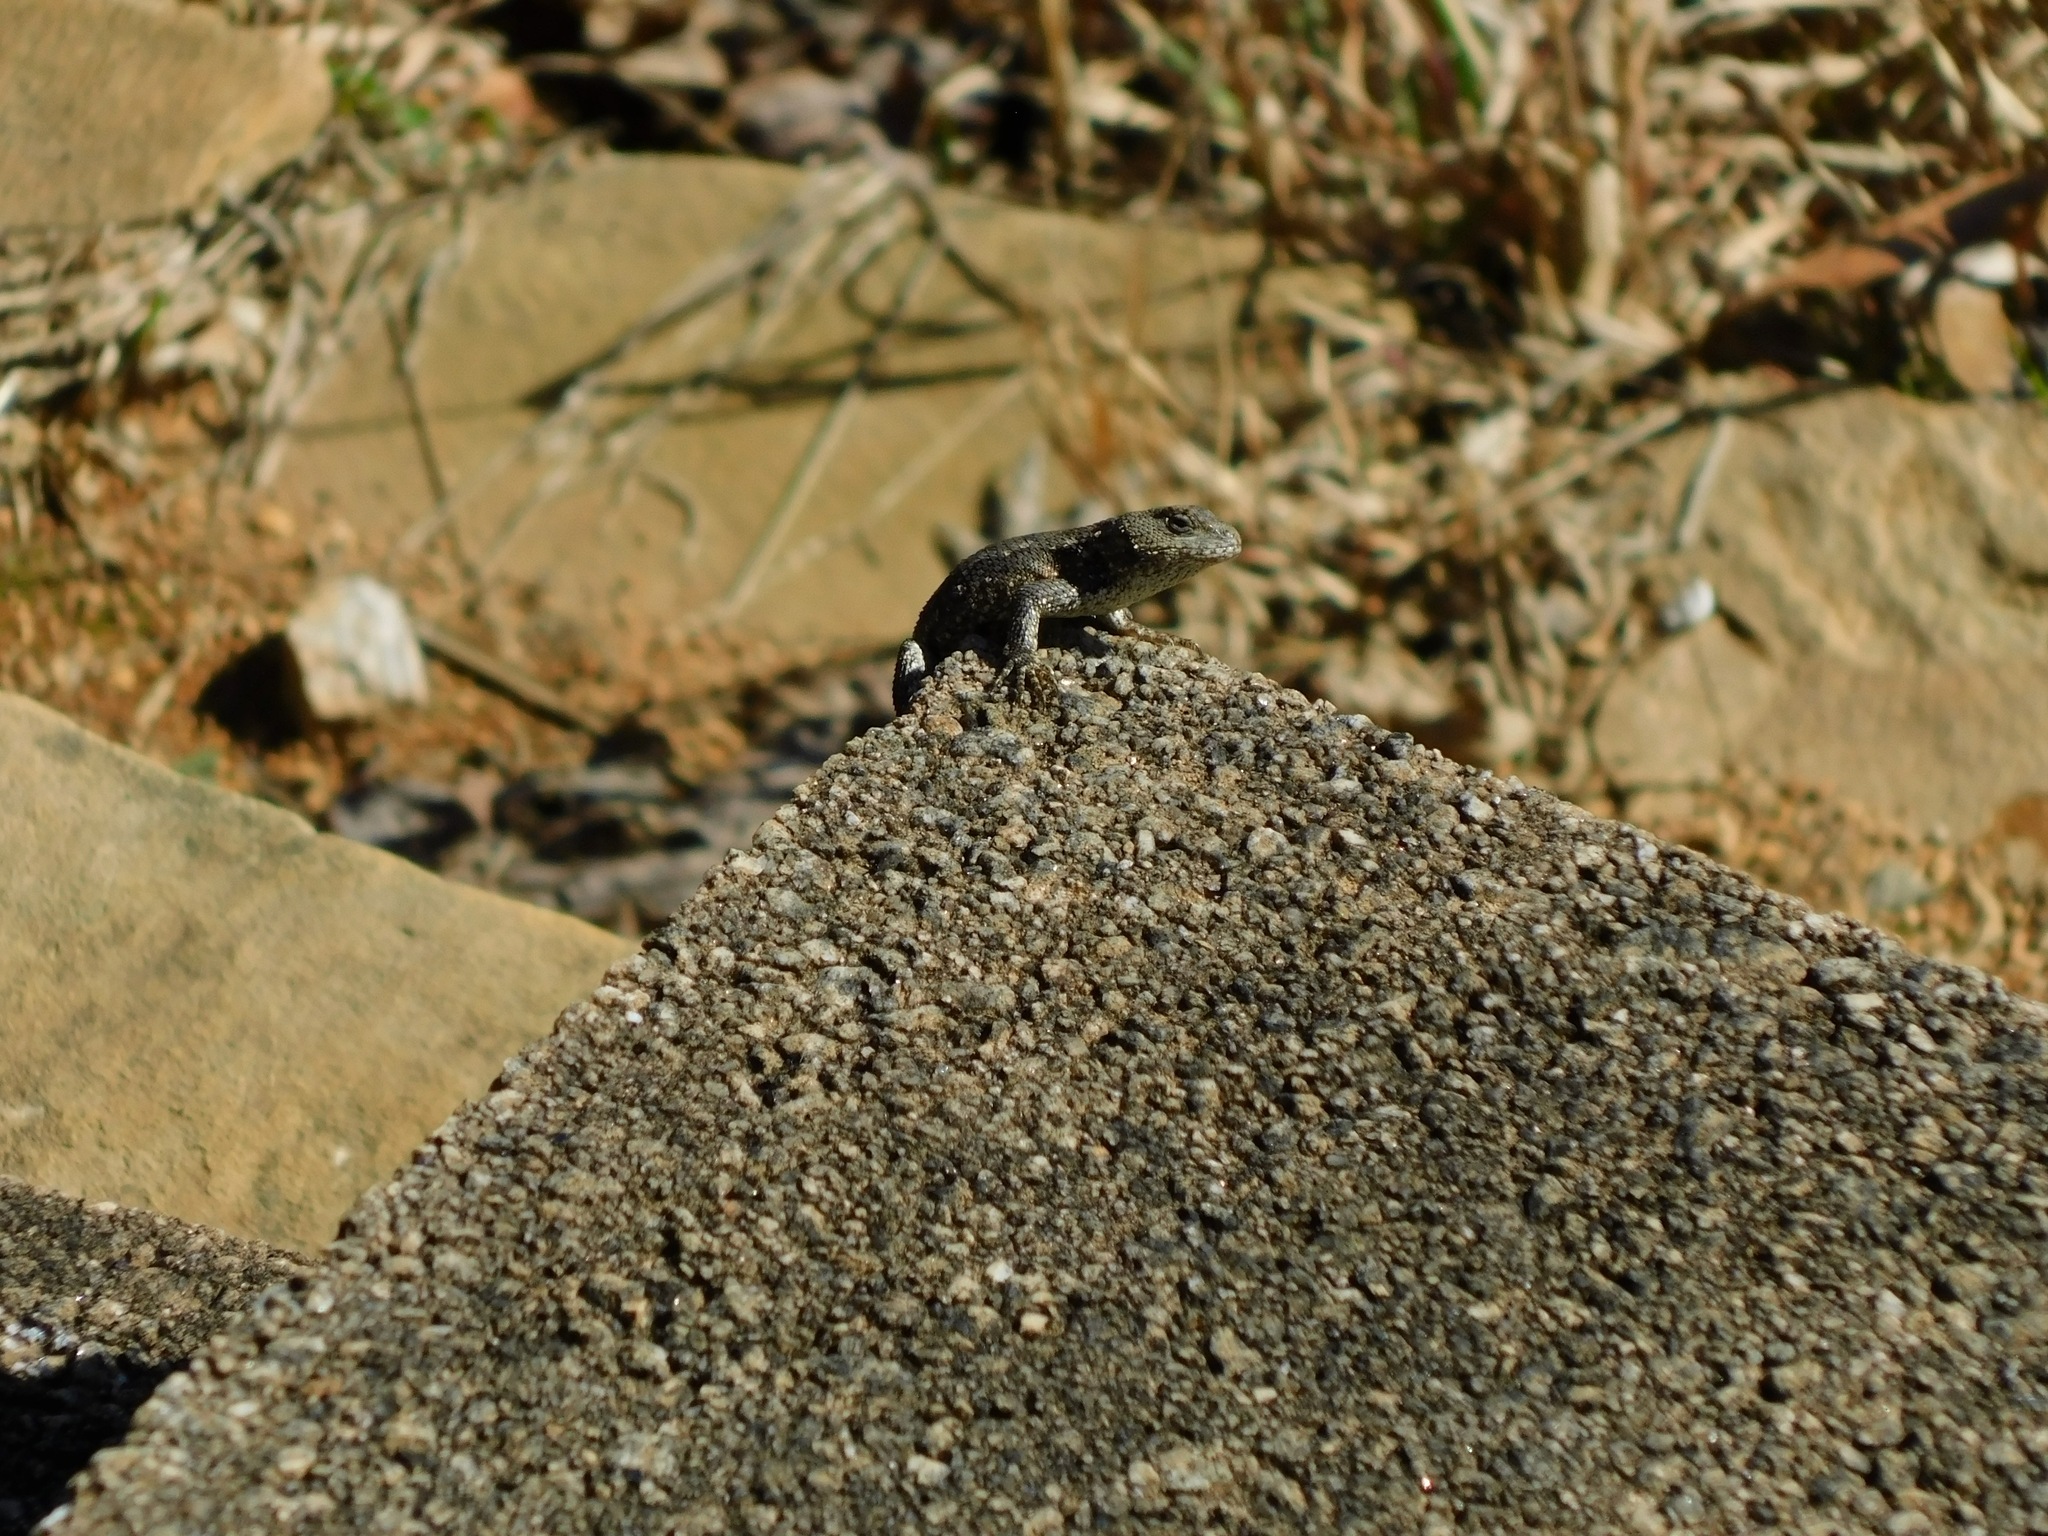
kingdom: Animalia
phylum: Chordata
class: Squamata
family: Phrynosomatidae
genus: Sceloporus
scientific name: Sceloporus undulatus
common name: Eastern fence lizard
